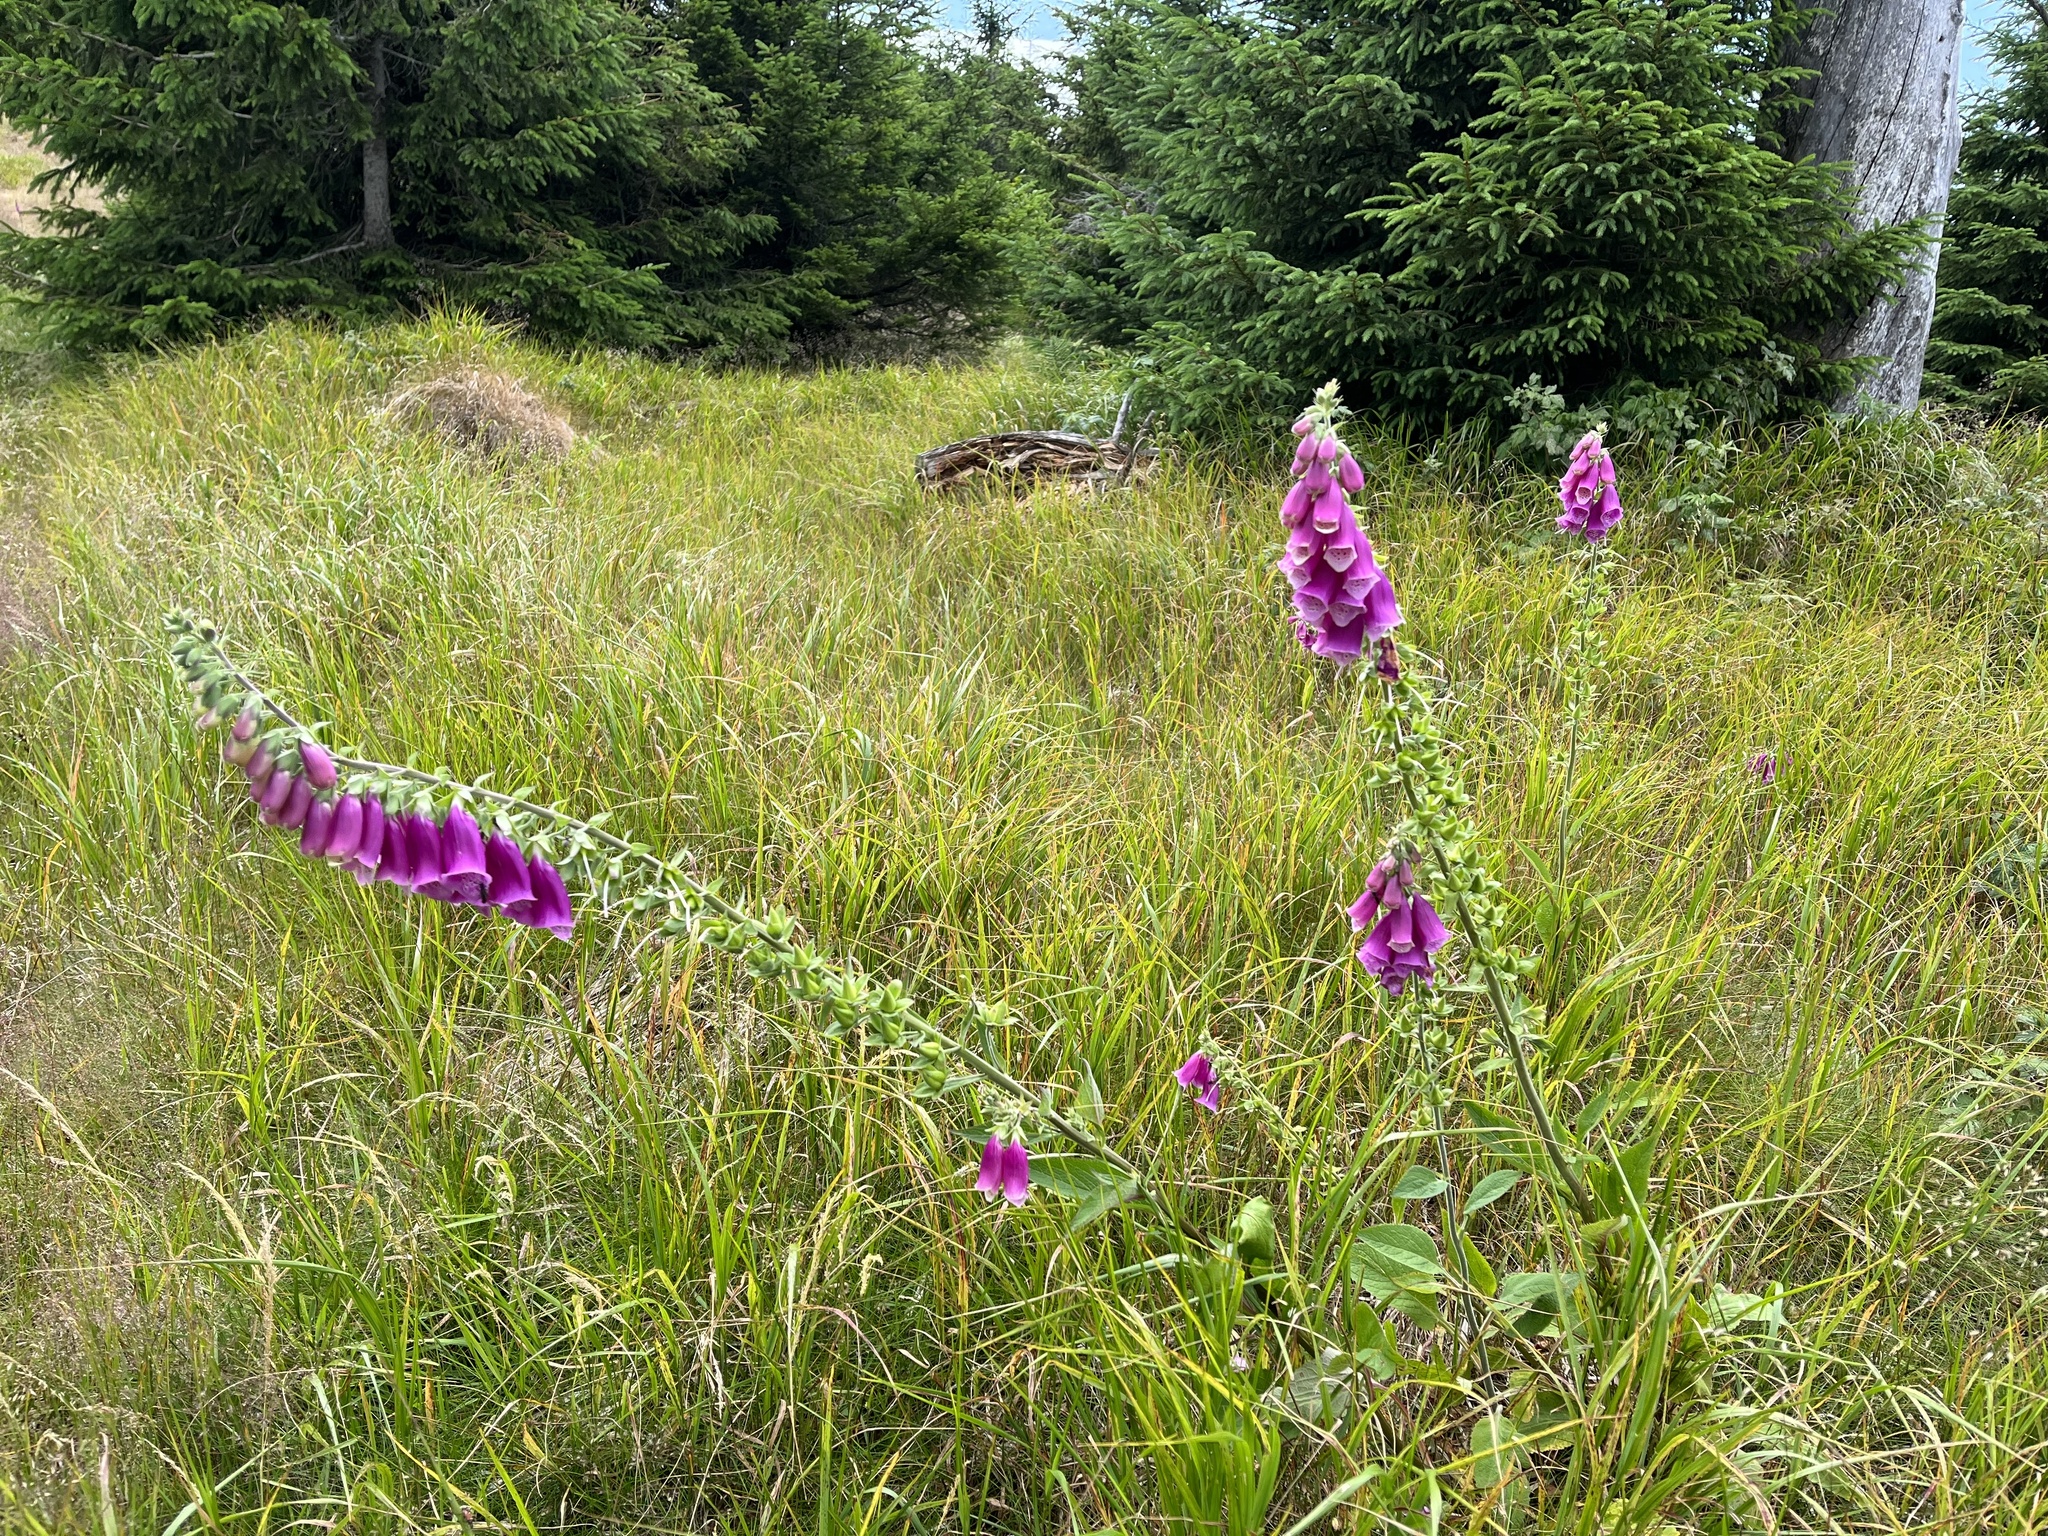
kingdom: Plantae
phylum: Tracheophyta
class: Magnoliopsida
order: Lamiales
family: Plantaginaceae
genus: Digitalis
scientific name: Digitalis purpurea
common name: Foxglove
